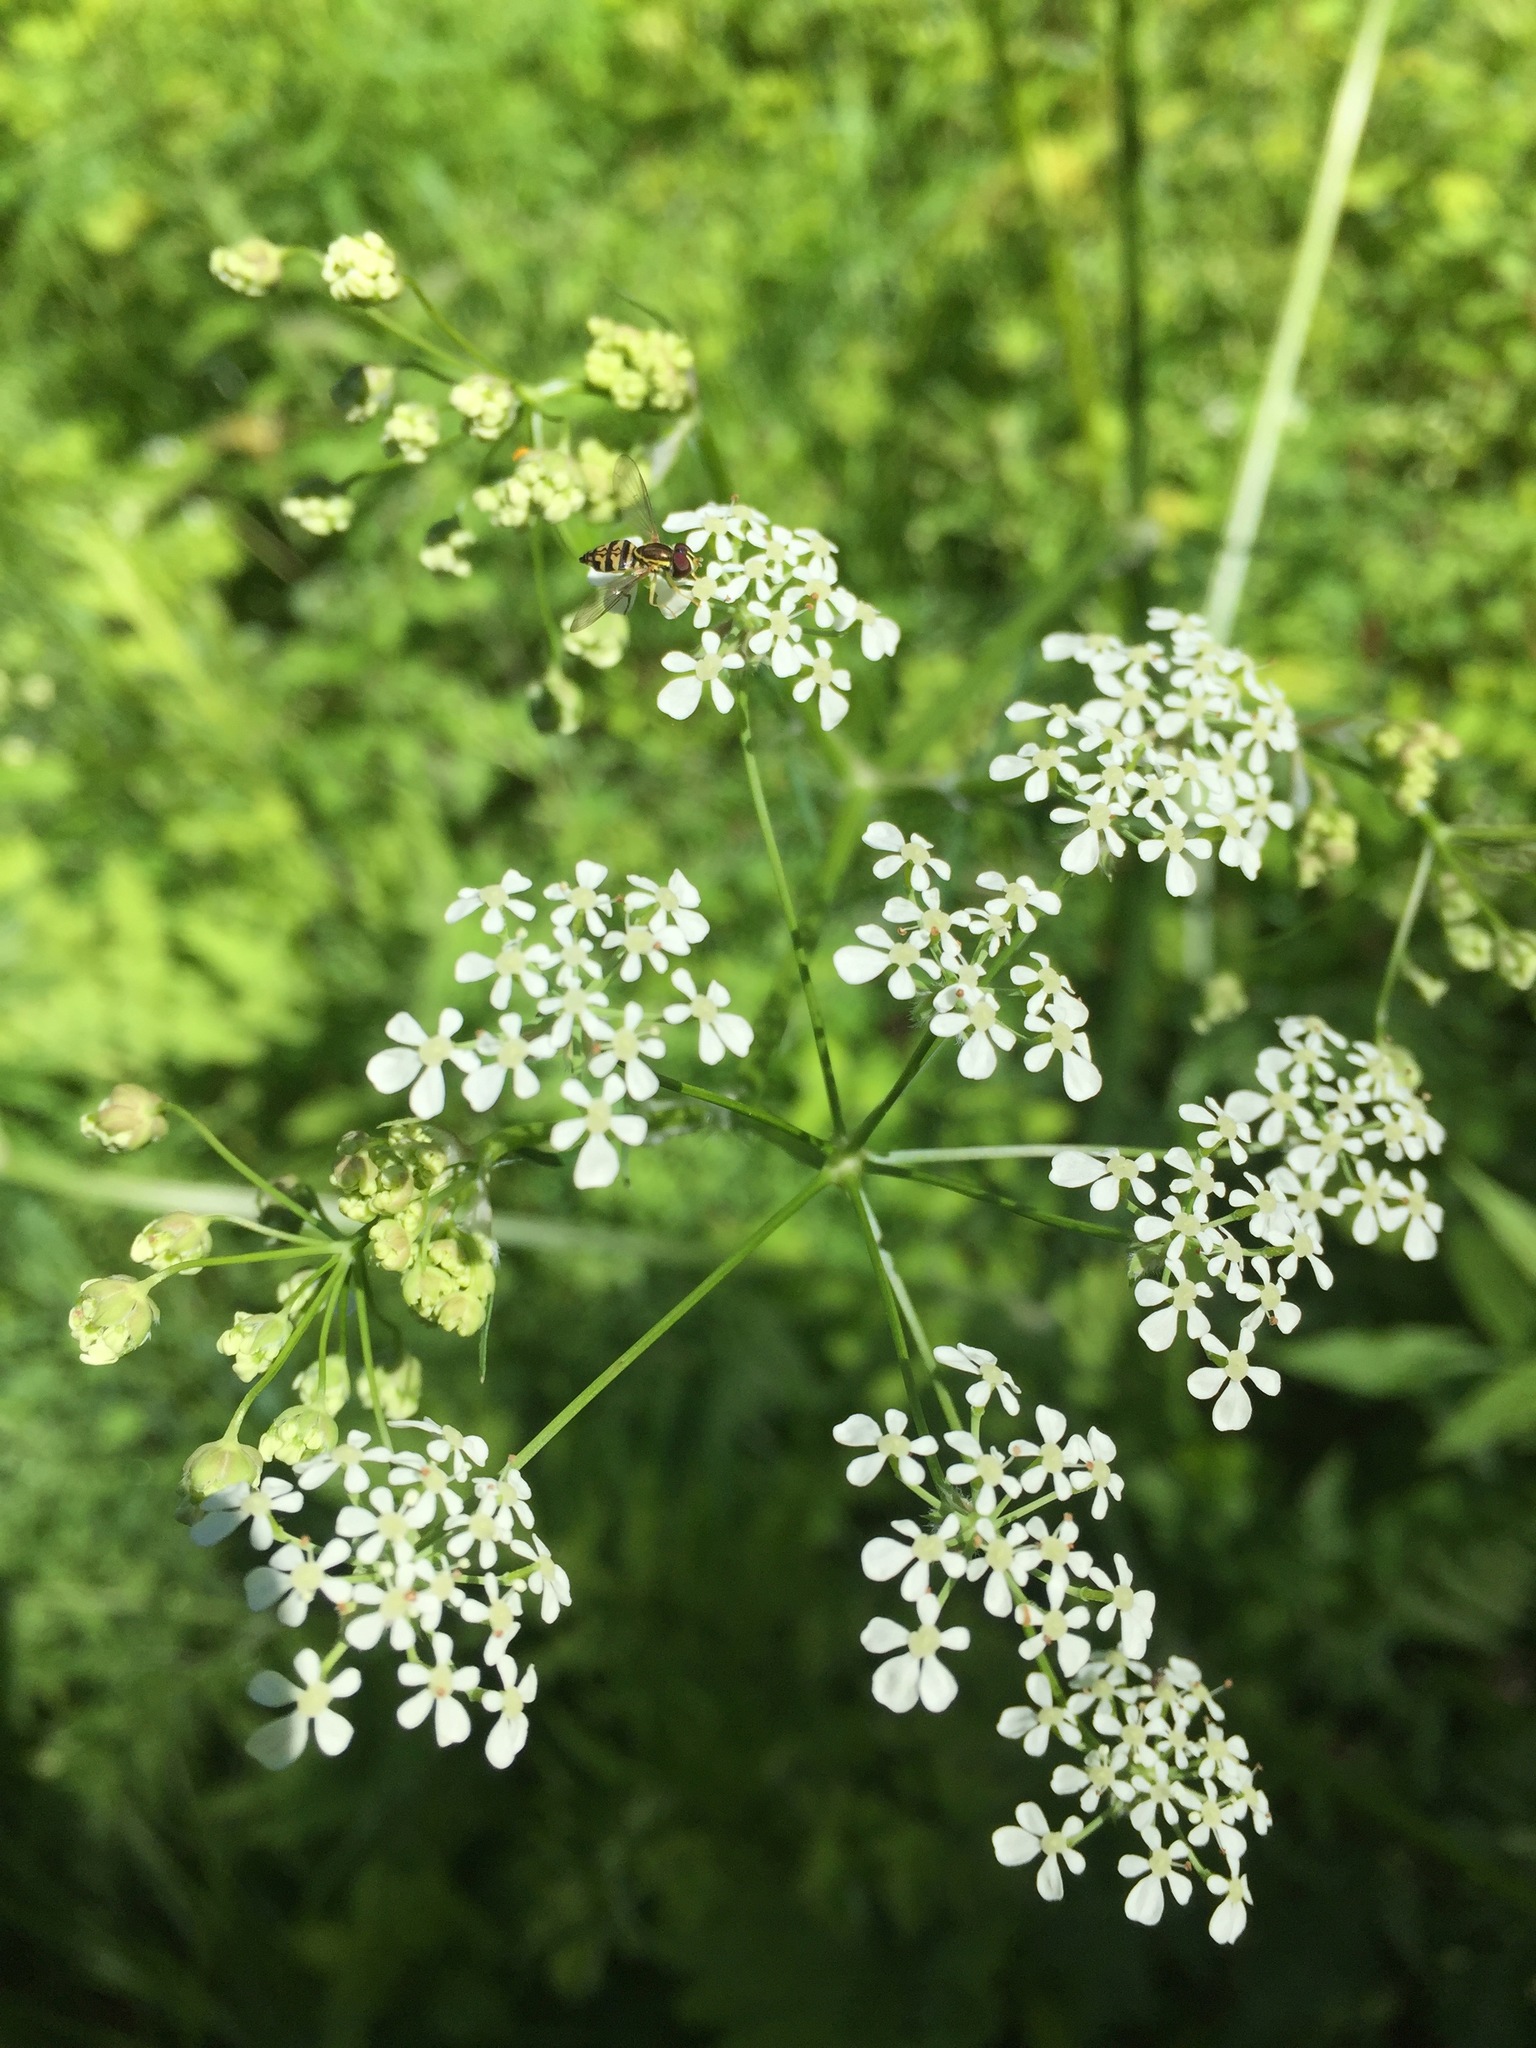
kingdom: Plantae
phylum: Tracheophyta
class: Magnoliopsida
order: Apiales
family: Apiaceae
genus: Anthriscus
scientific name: Anthriscus sylvestris
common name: Cow parsley
